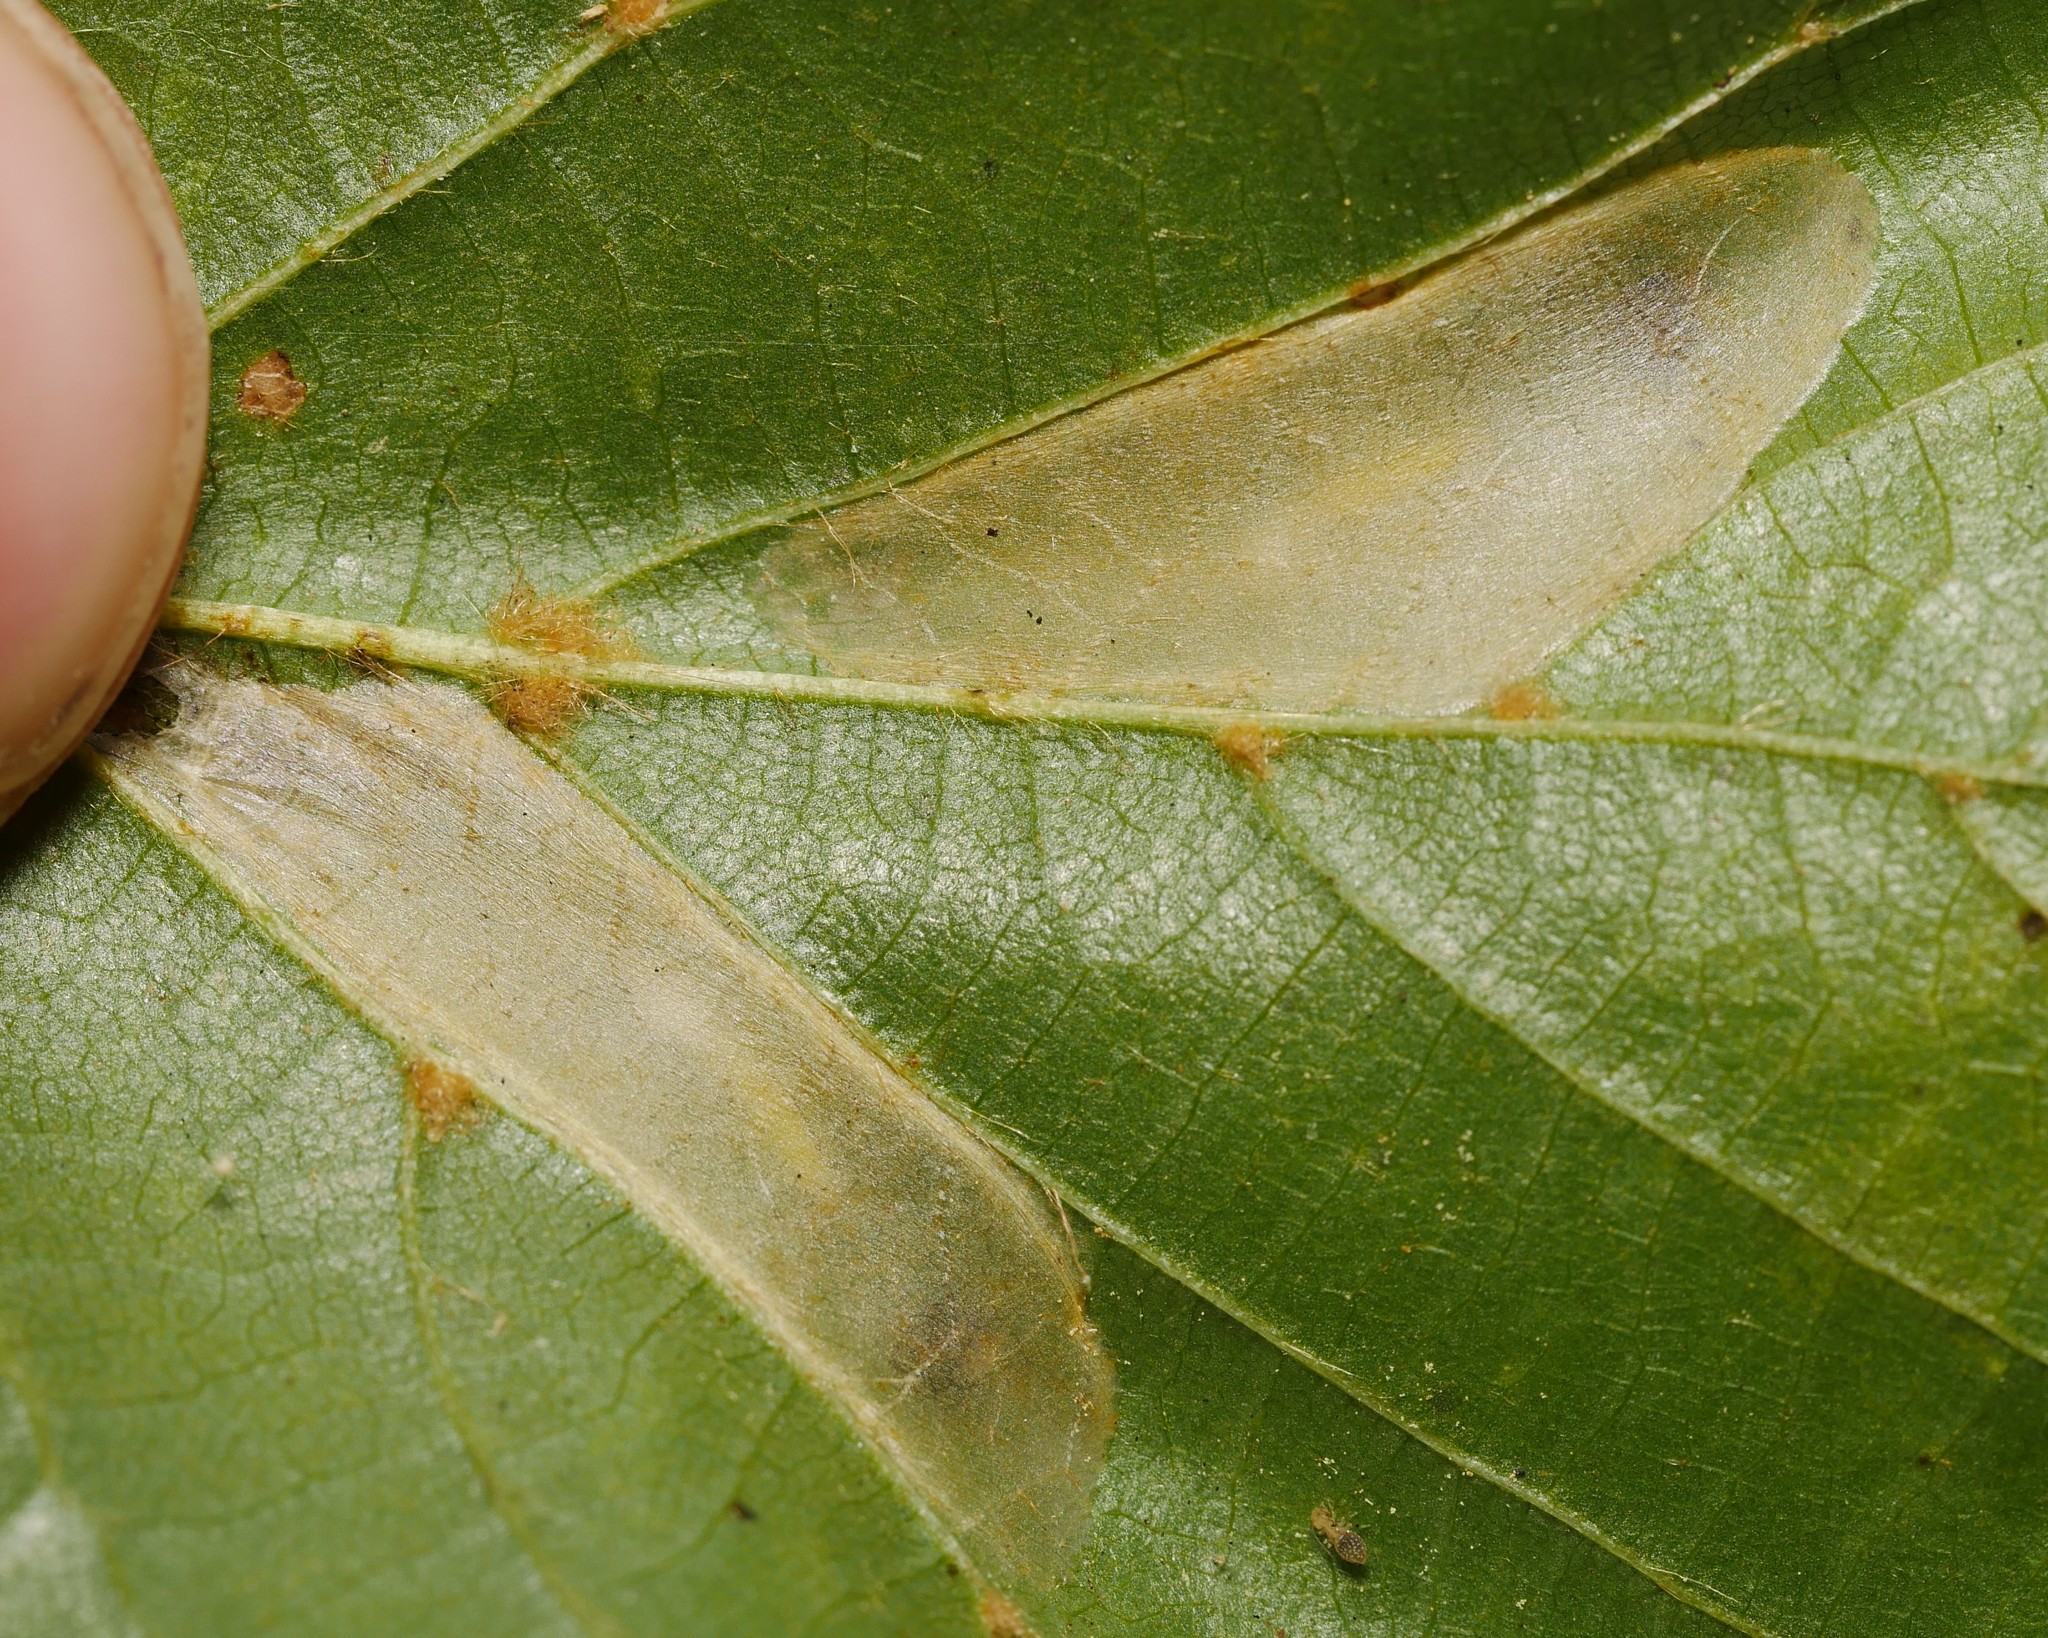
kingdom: Animalia
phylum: Arthropoda
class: Insecta
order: Lepidoptera
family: Gracillariidae
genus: Phyllonorycter
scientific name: Phyllonorycter issikii
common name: Linden midget
